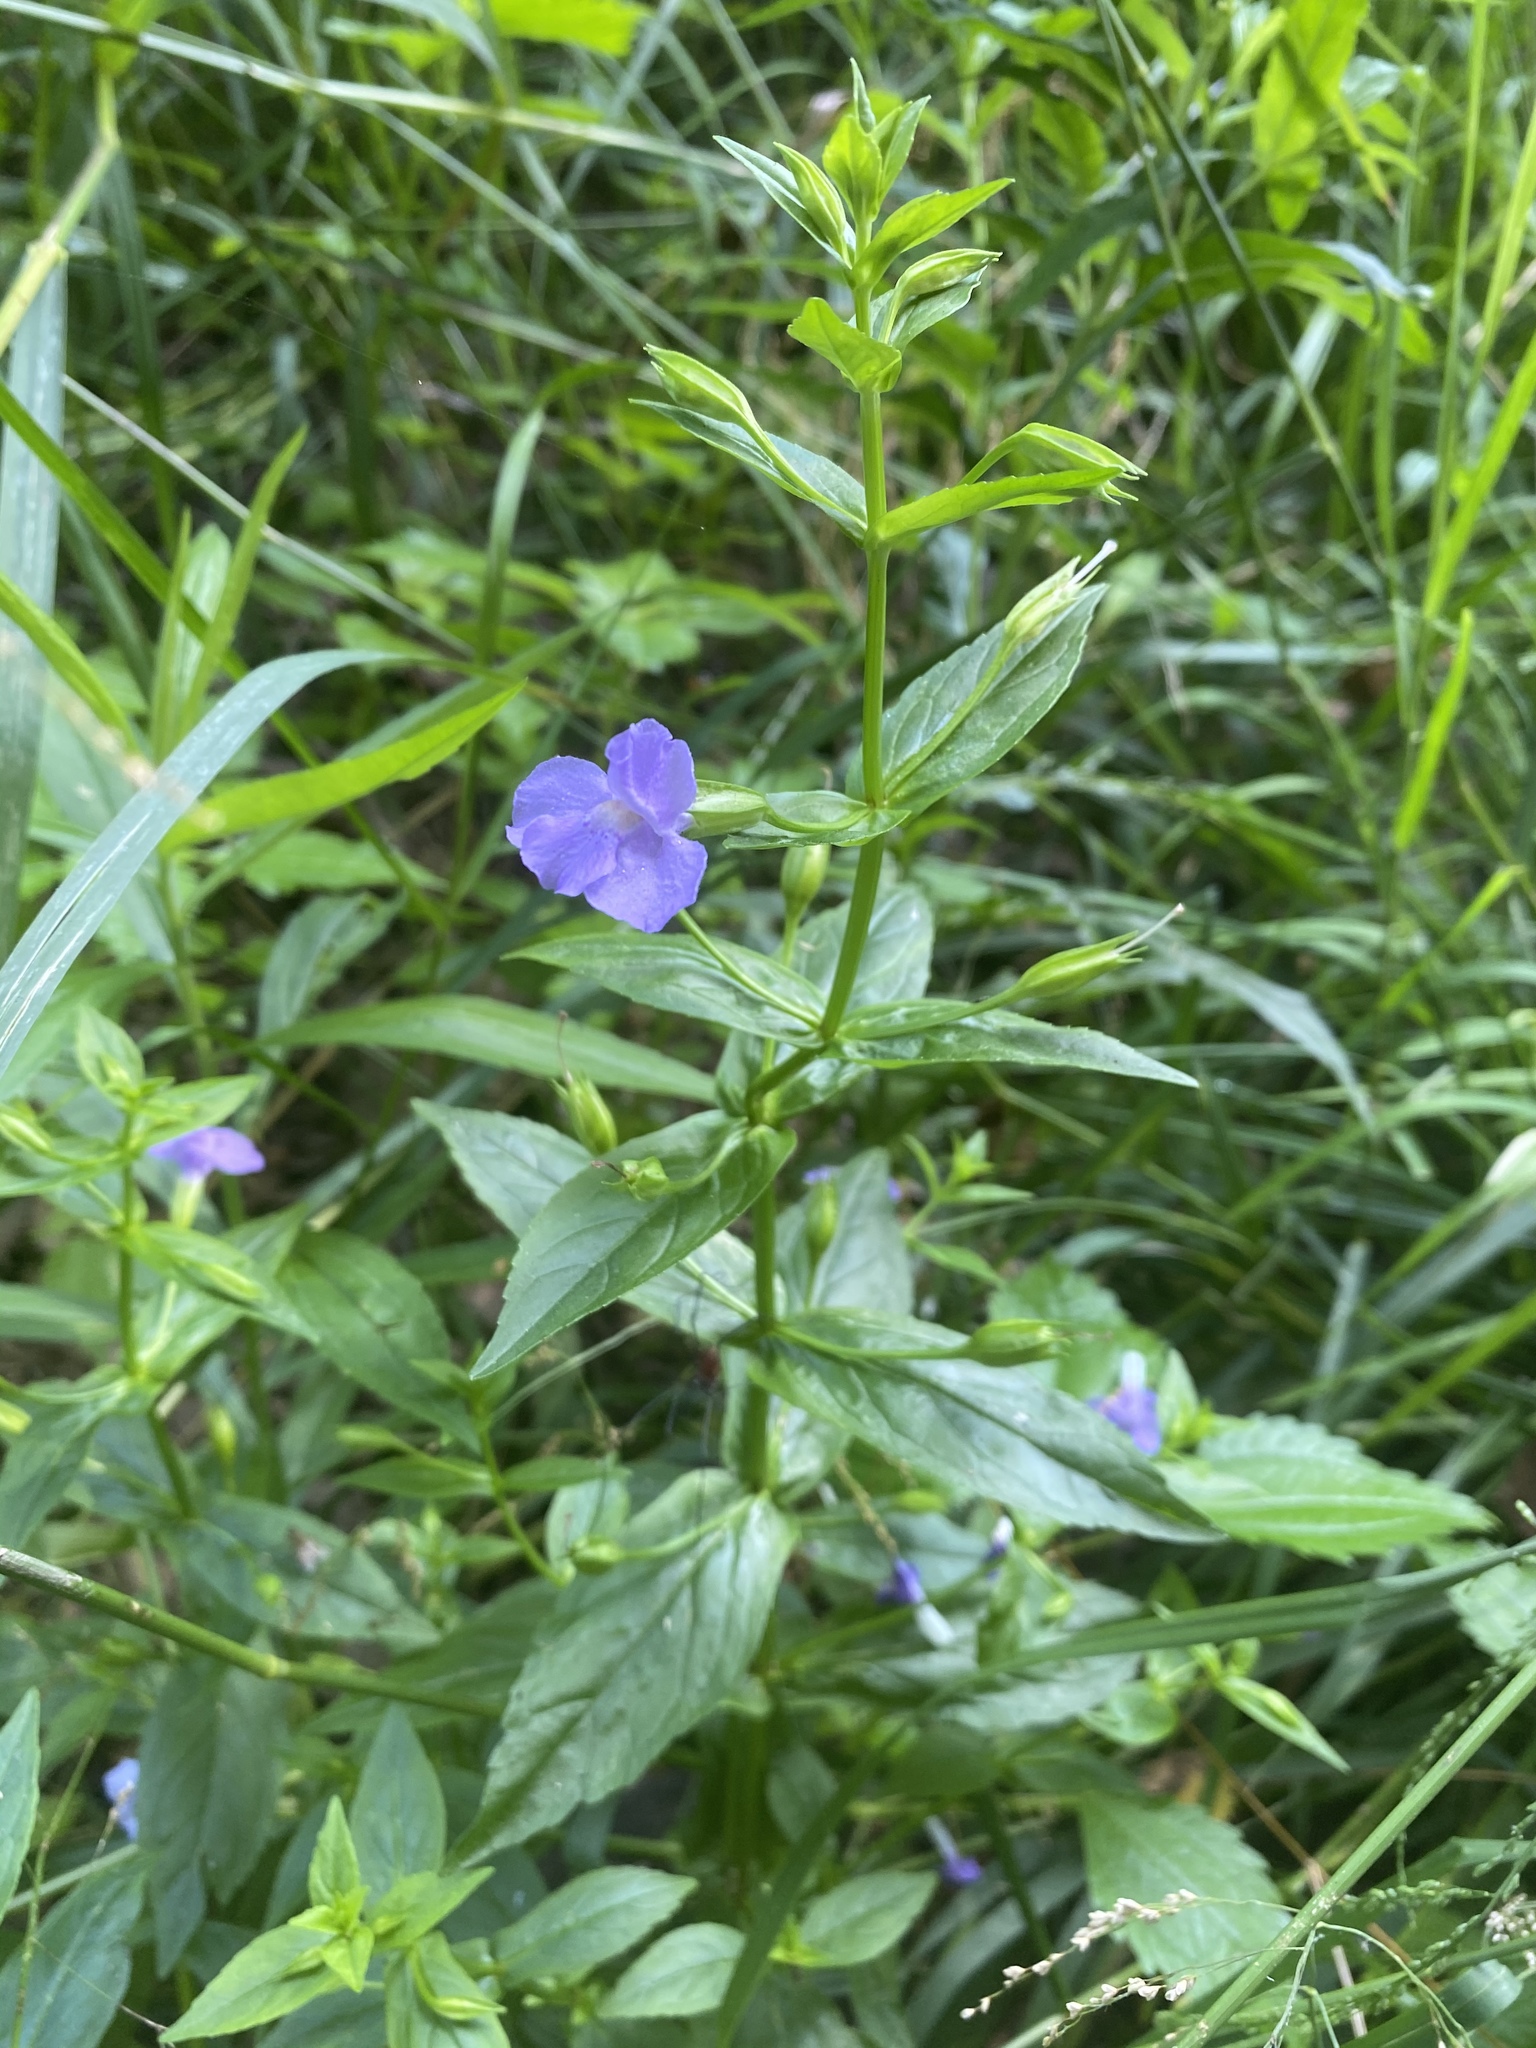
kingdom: Plantae
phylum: Tracheophyta
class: Magnoliopsida
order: Lamiales
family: Phrymaceae
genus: Mimulus
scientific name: Mimulus ringens
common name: Allegheny monkeyflower
